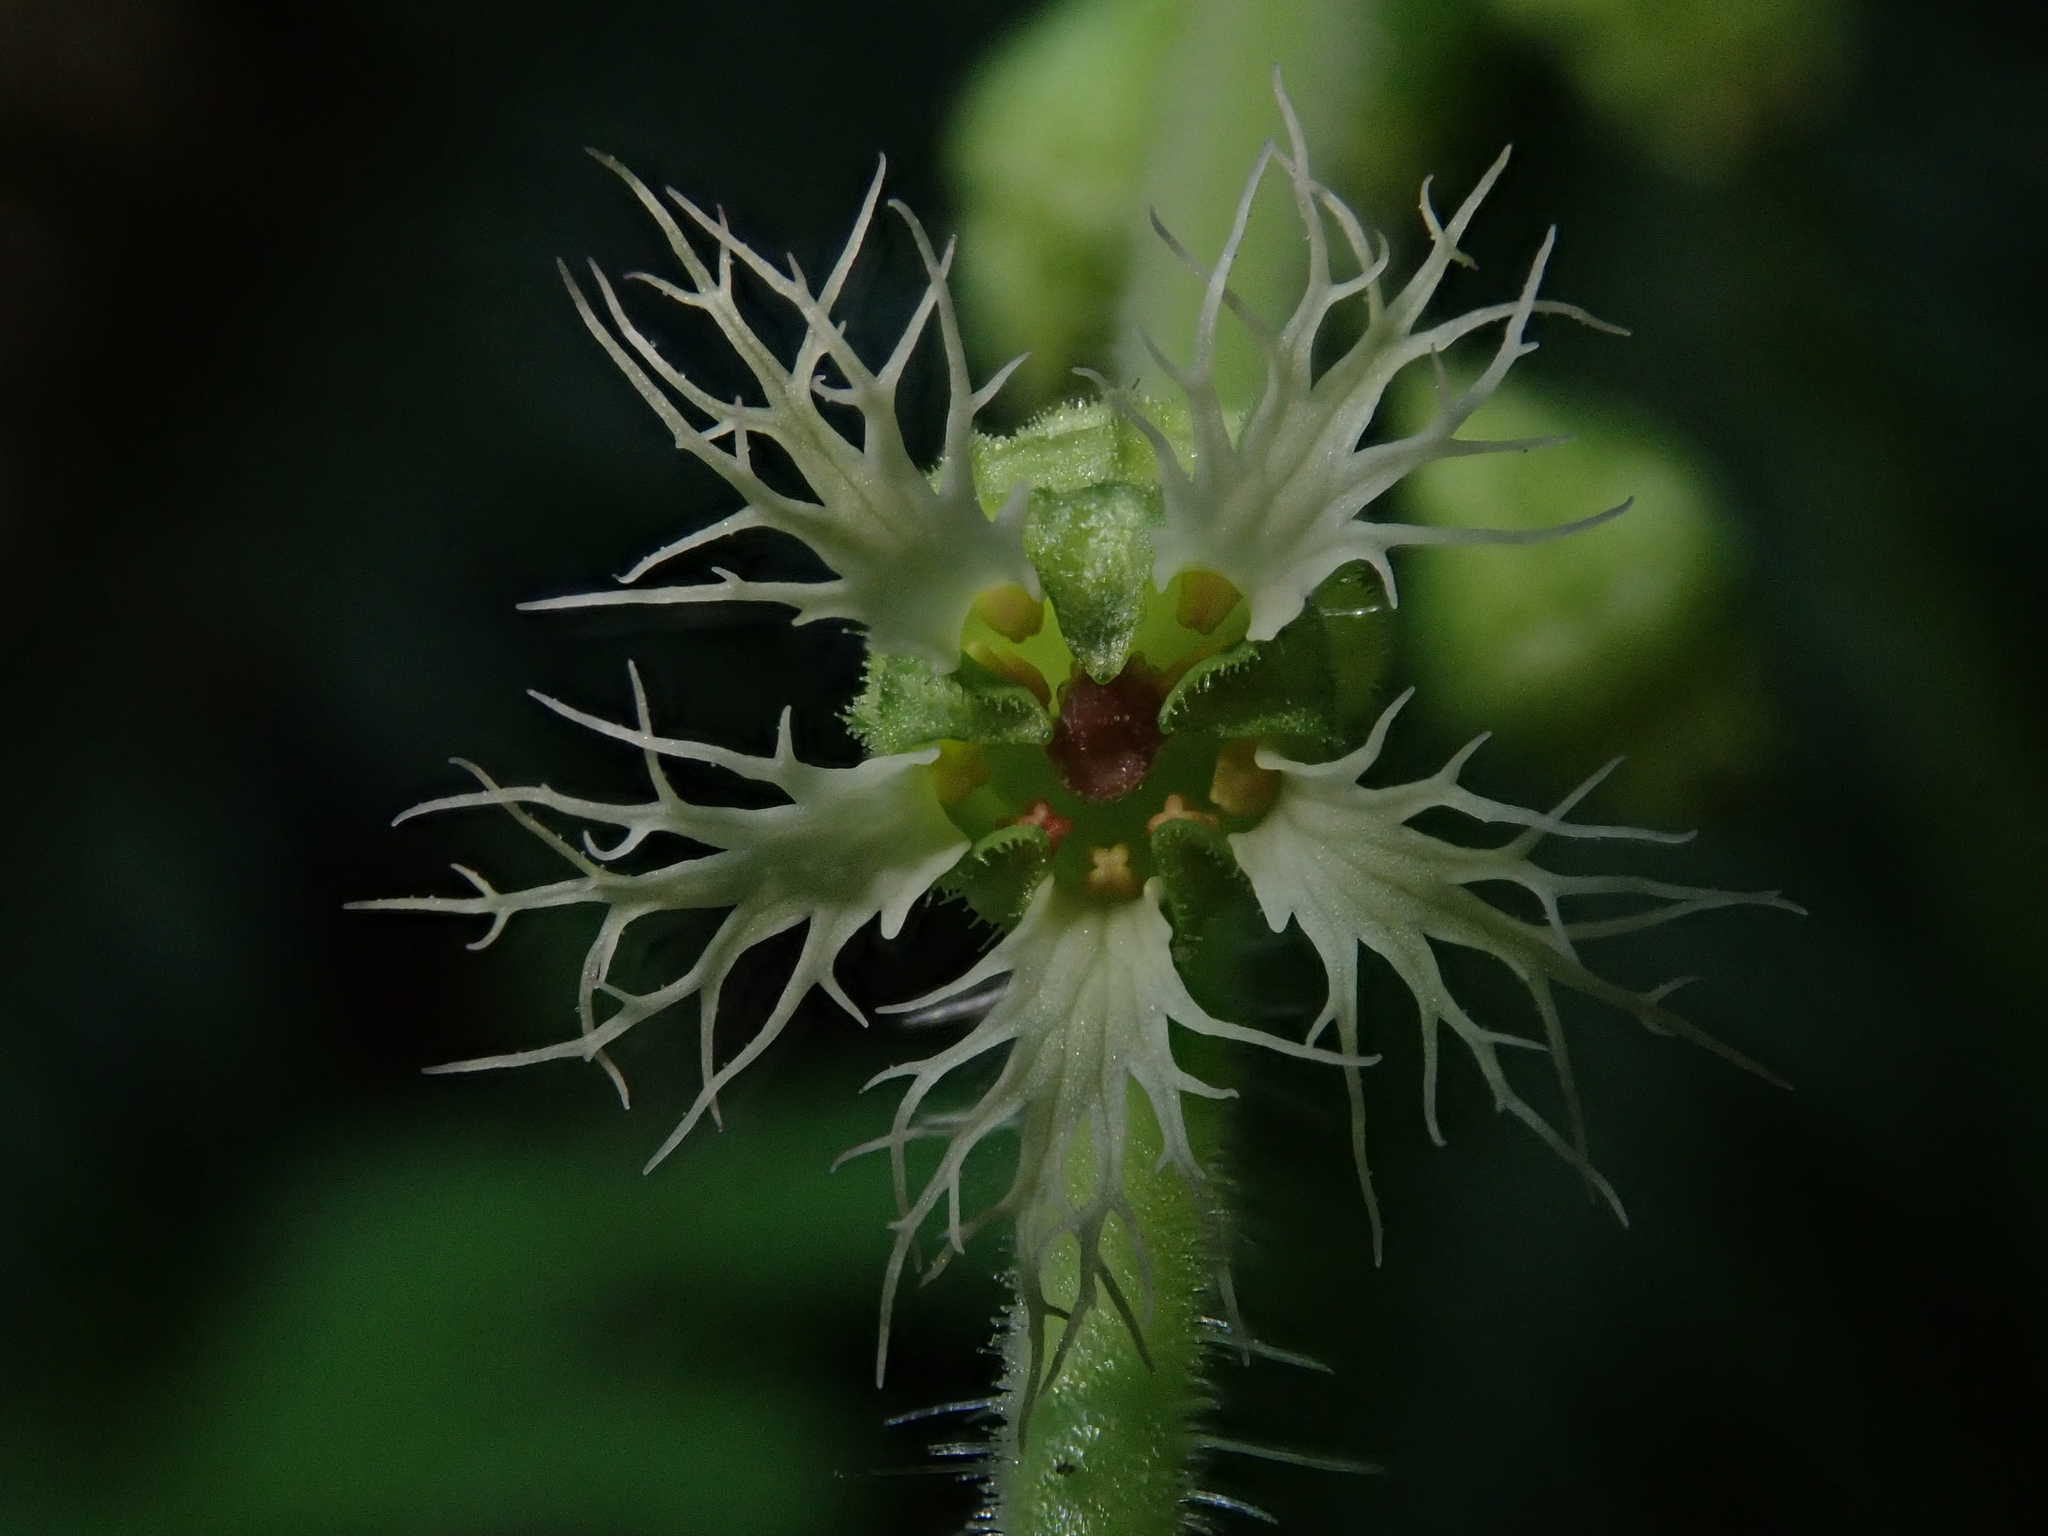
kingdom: Plantae
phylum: Tracheophyta
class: Magnoliopsida
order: Saxifragales
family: Saxifragaceae
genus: Tellima
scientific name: Tellima grandiflora
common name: Fringecups
